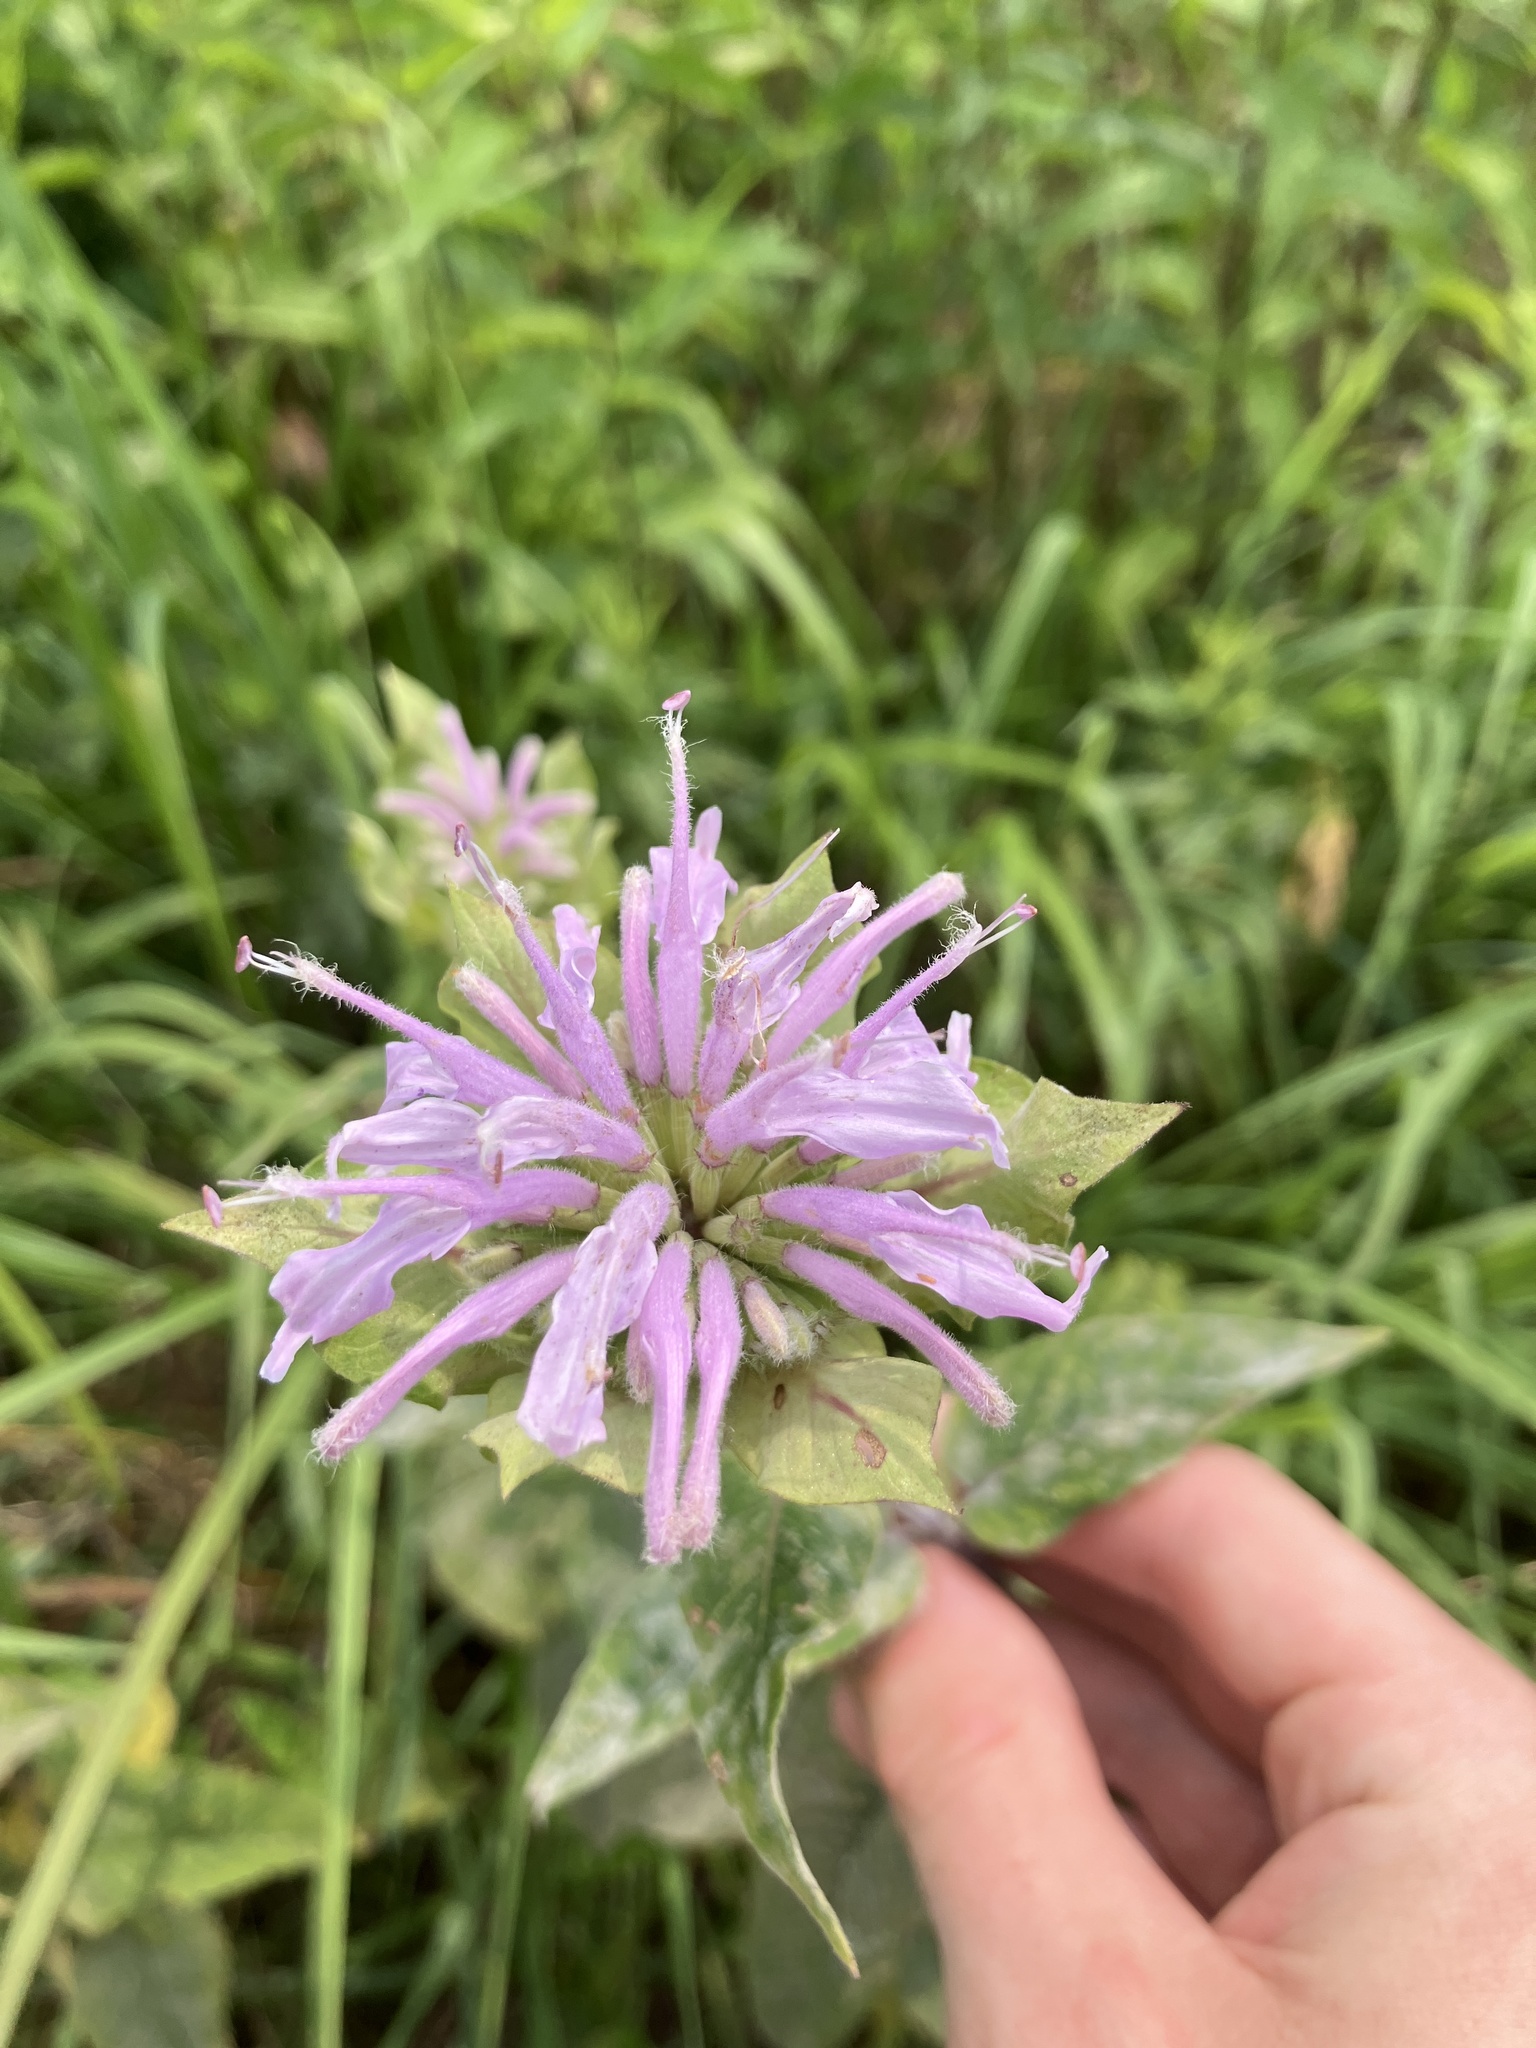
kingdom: Plantae
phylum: Tracheophyta
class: Magnoliopsida
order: Lamiales
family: Lamiaceae
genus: Monarda
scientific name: Monarda fistulosa
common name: Purple beebalm
